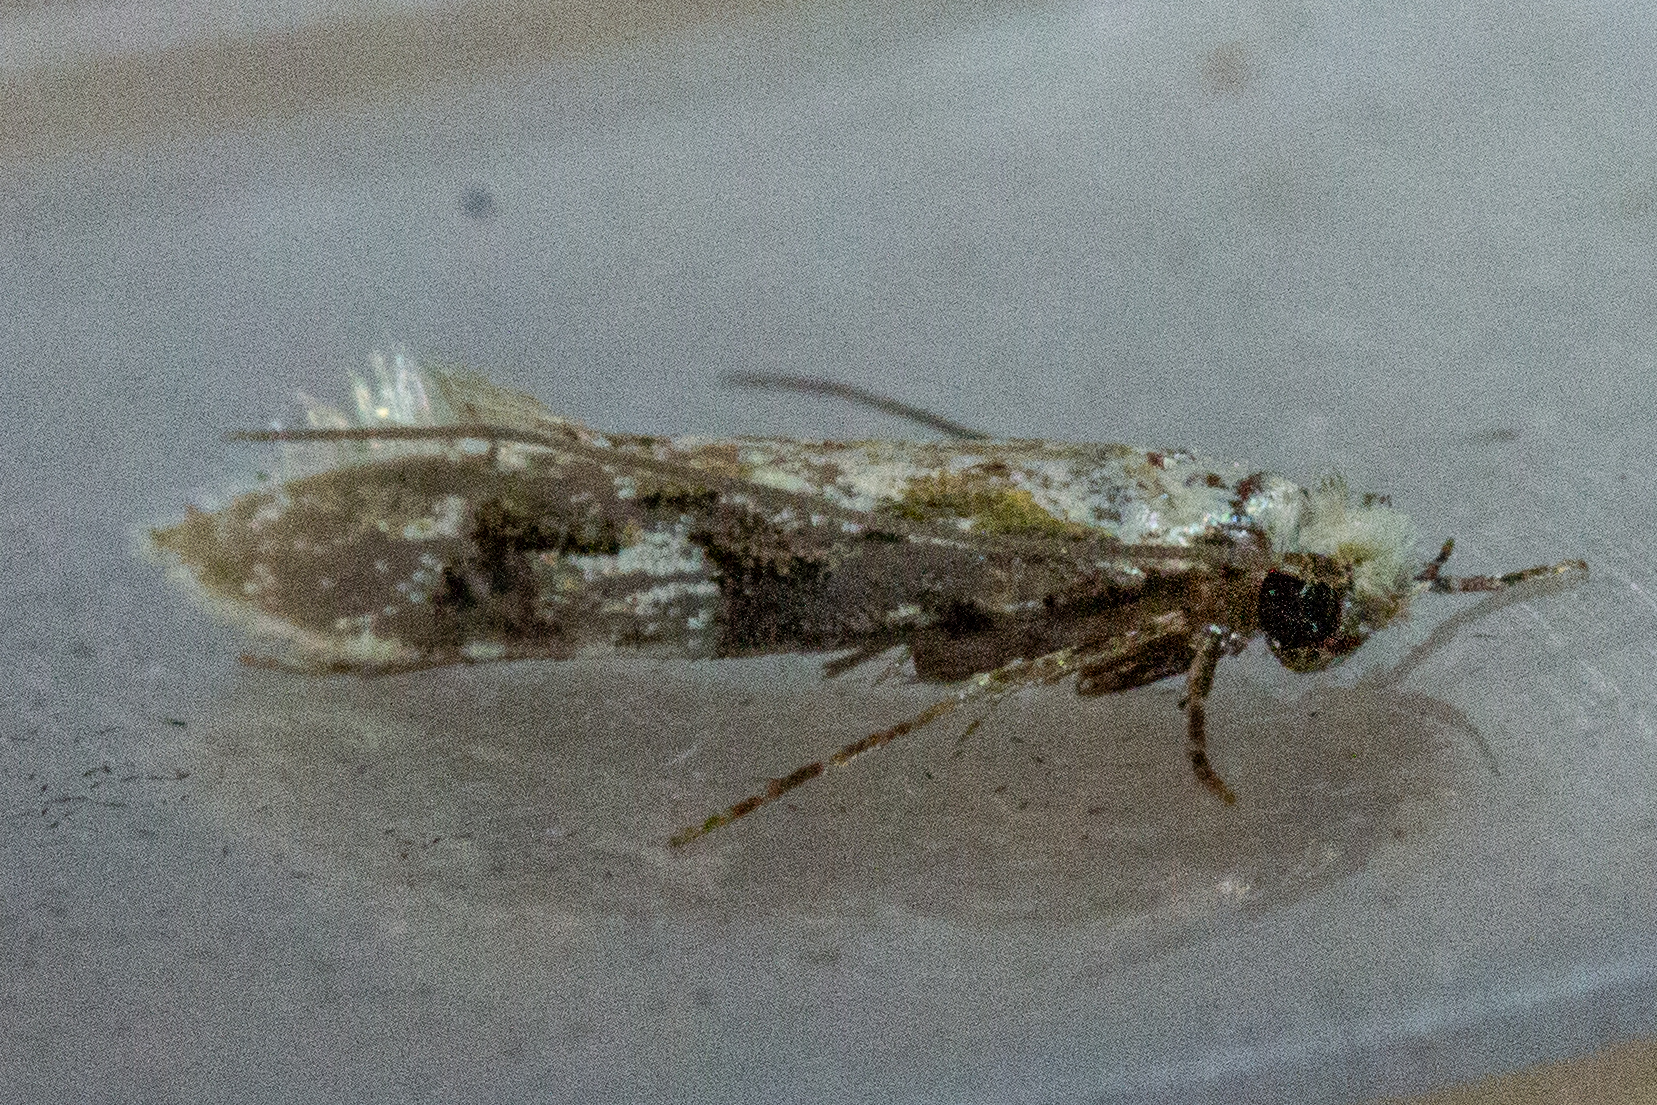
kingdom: Animalia
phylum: Arthropoda
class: Insecta
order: Lepidoptera
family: Tineidae
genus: Crypsitricha
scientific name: Crypsitricha mesotypa
